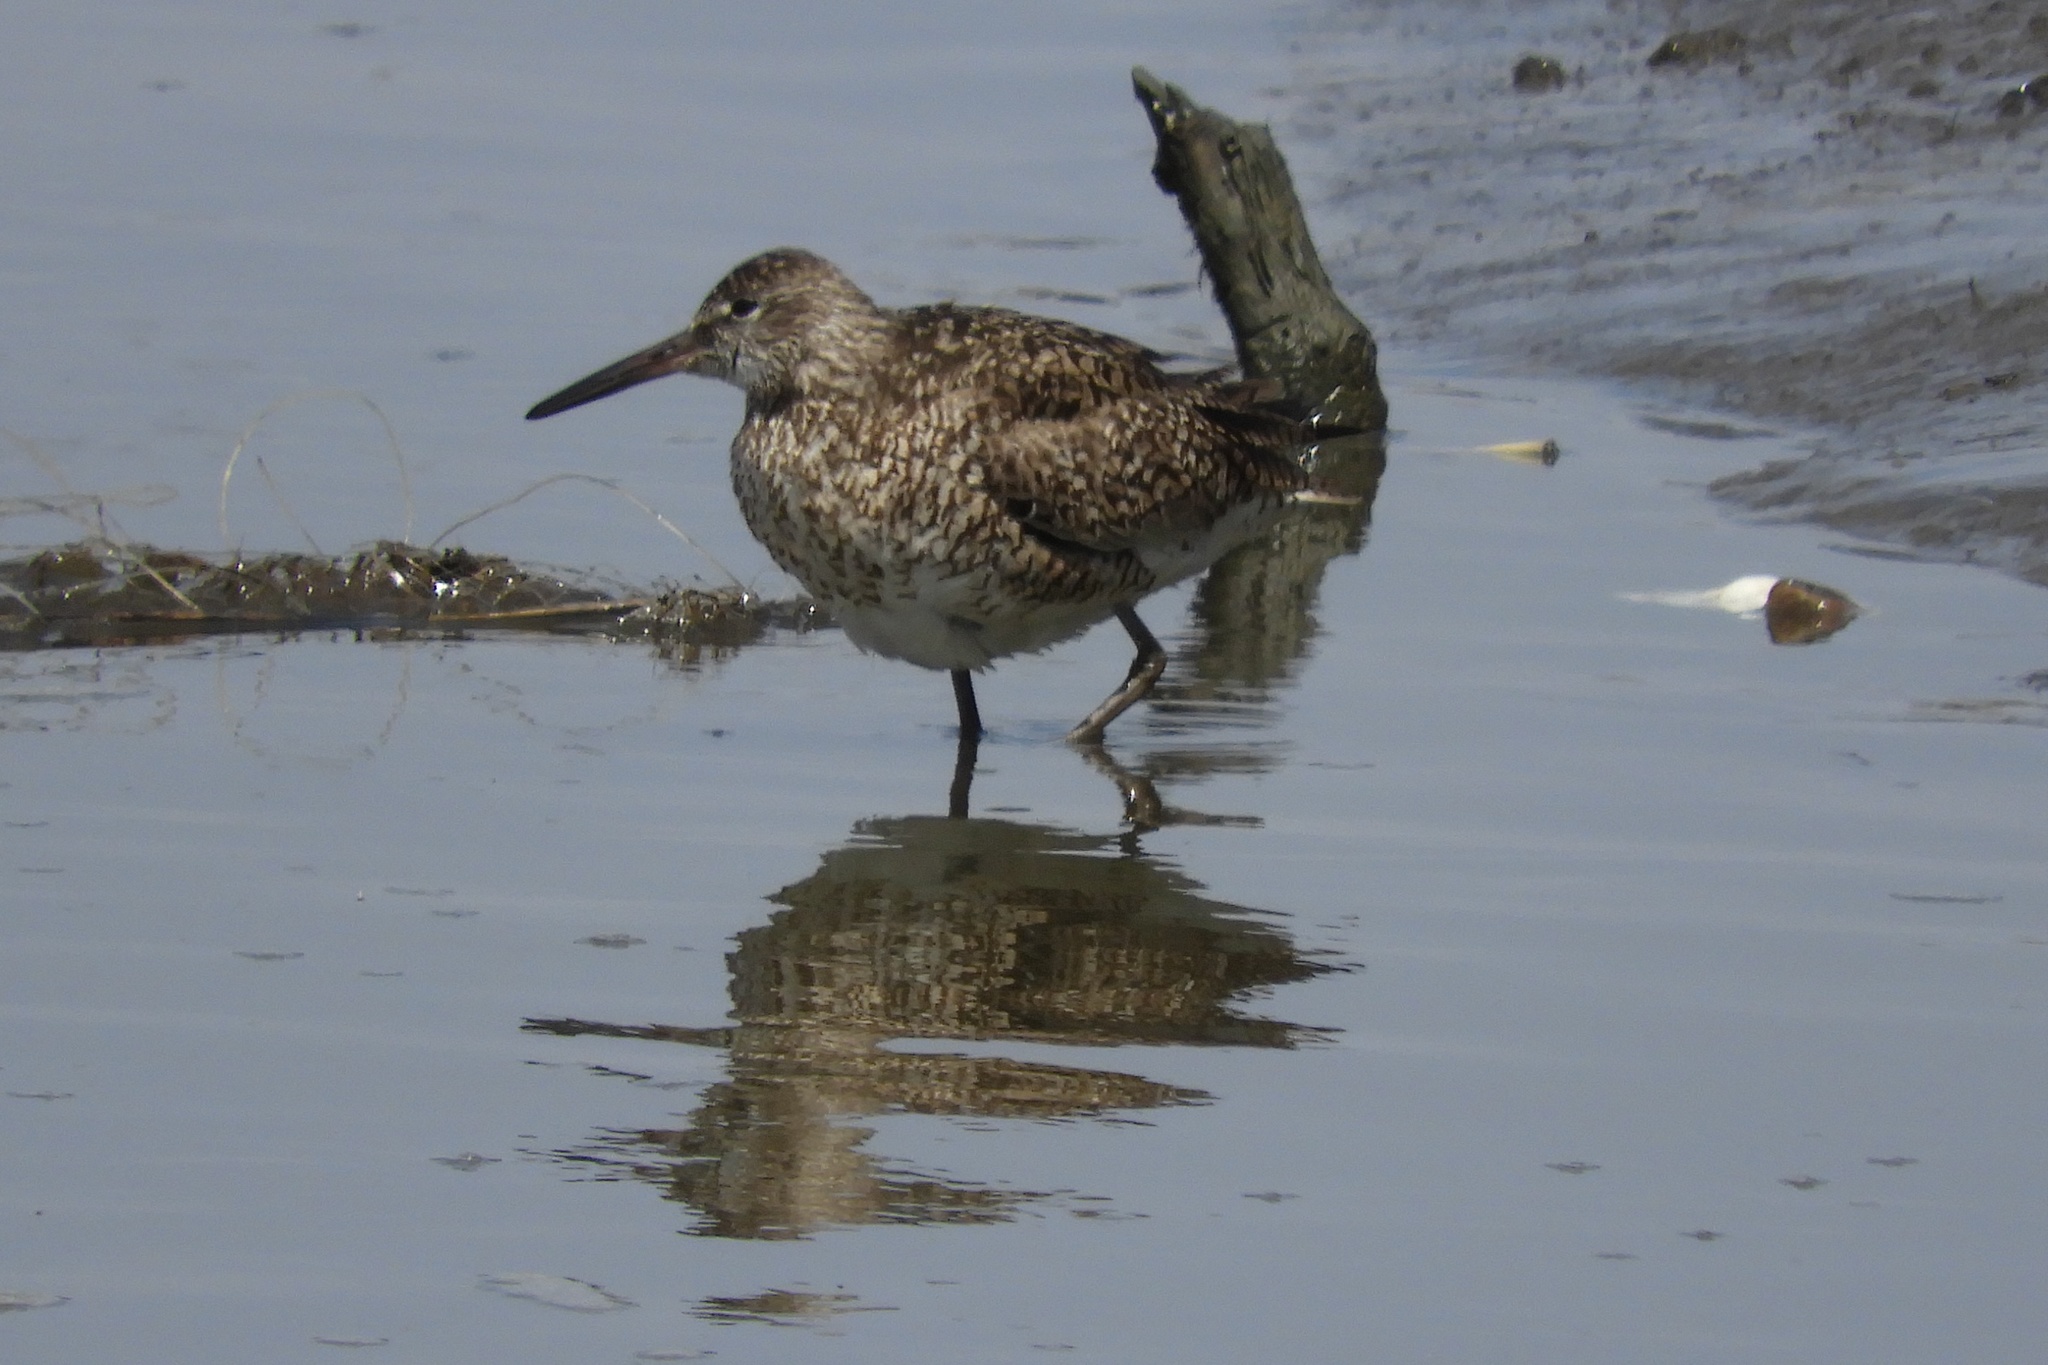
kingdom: Animalia
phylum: Chordata
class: Aves
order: Charadriiformes
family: Scolopacidae
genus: Tringa
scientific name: Tringa semipalmata
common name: Willet
